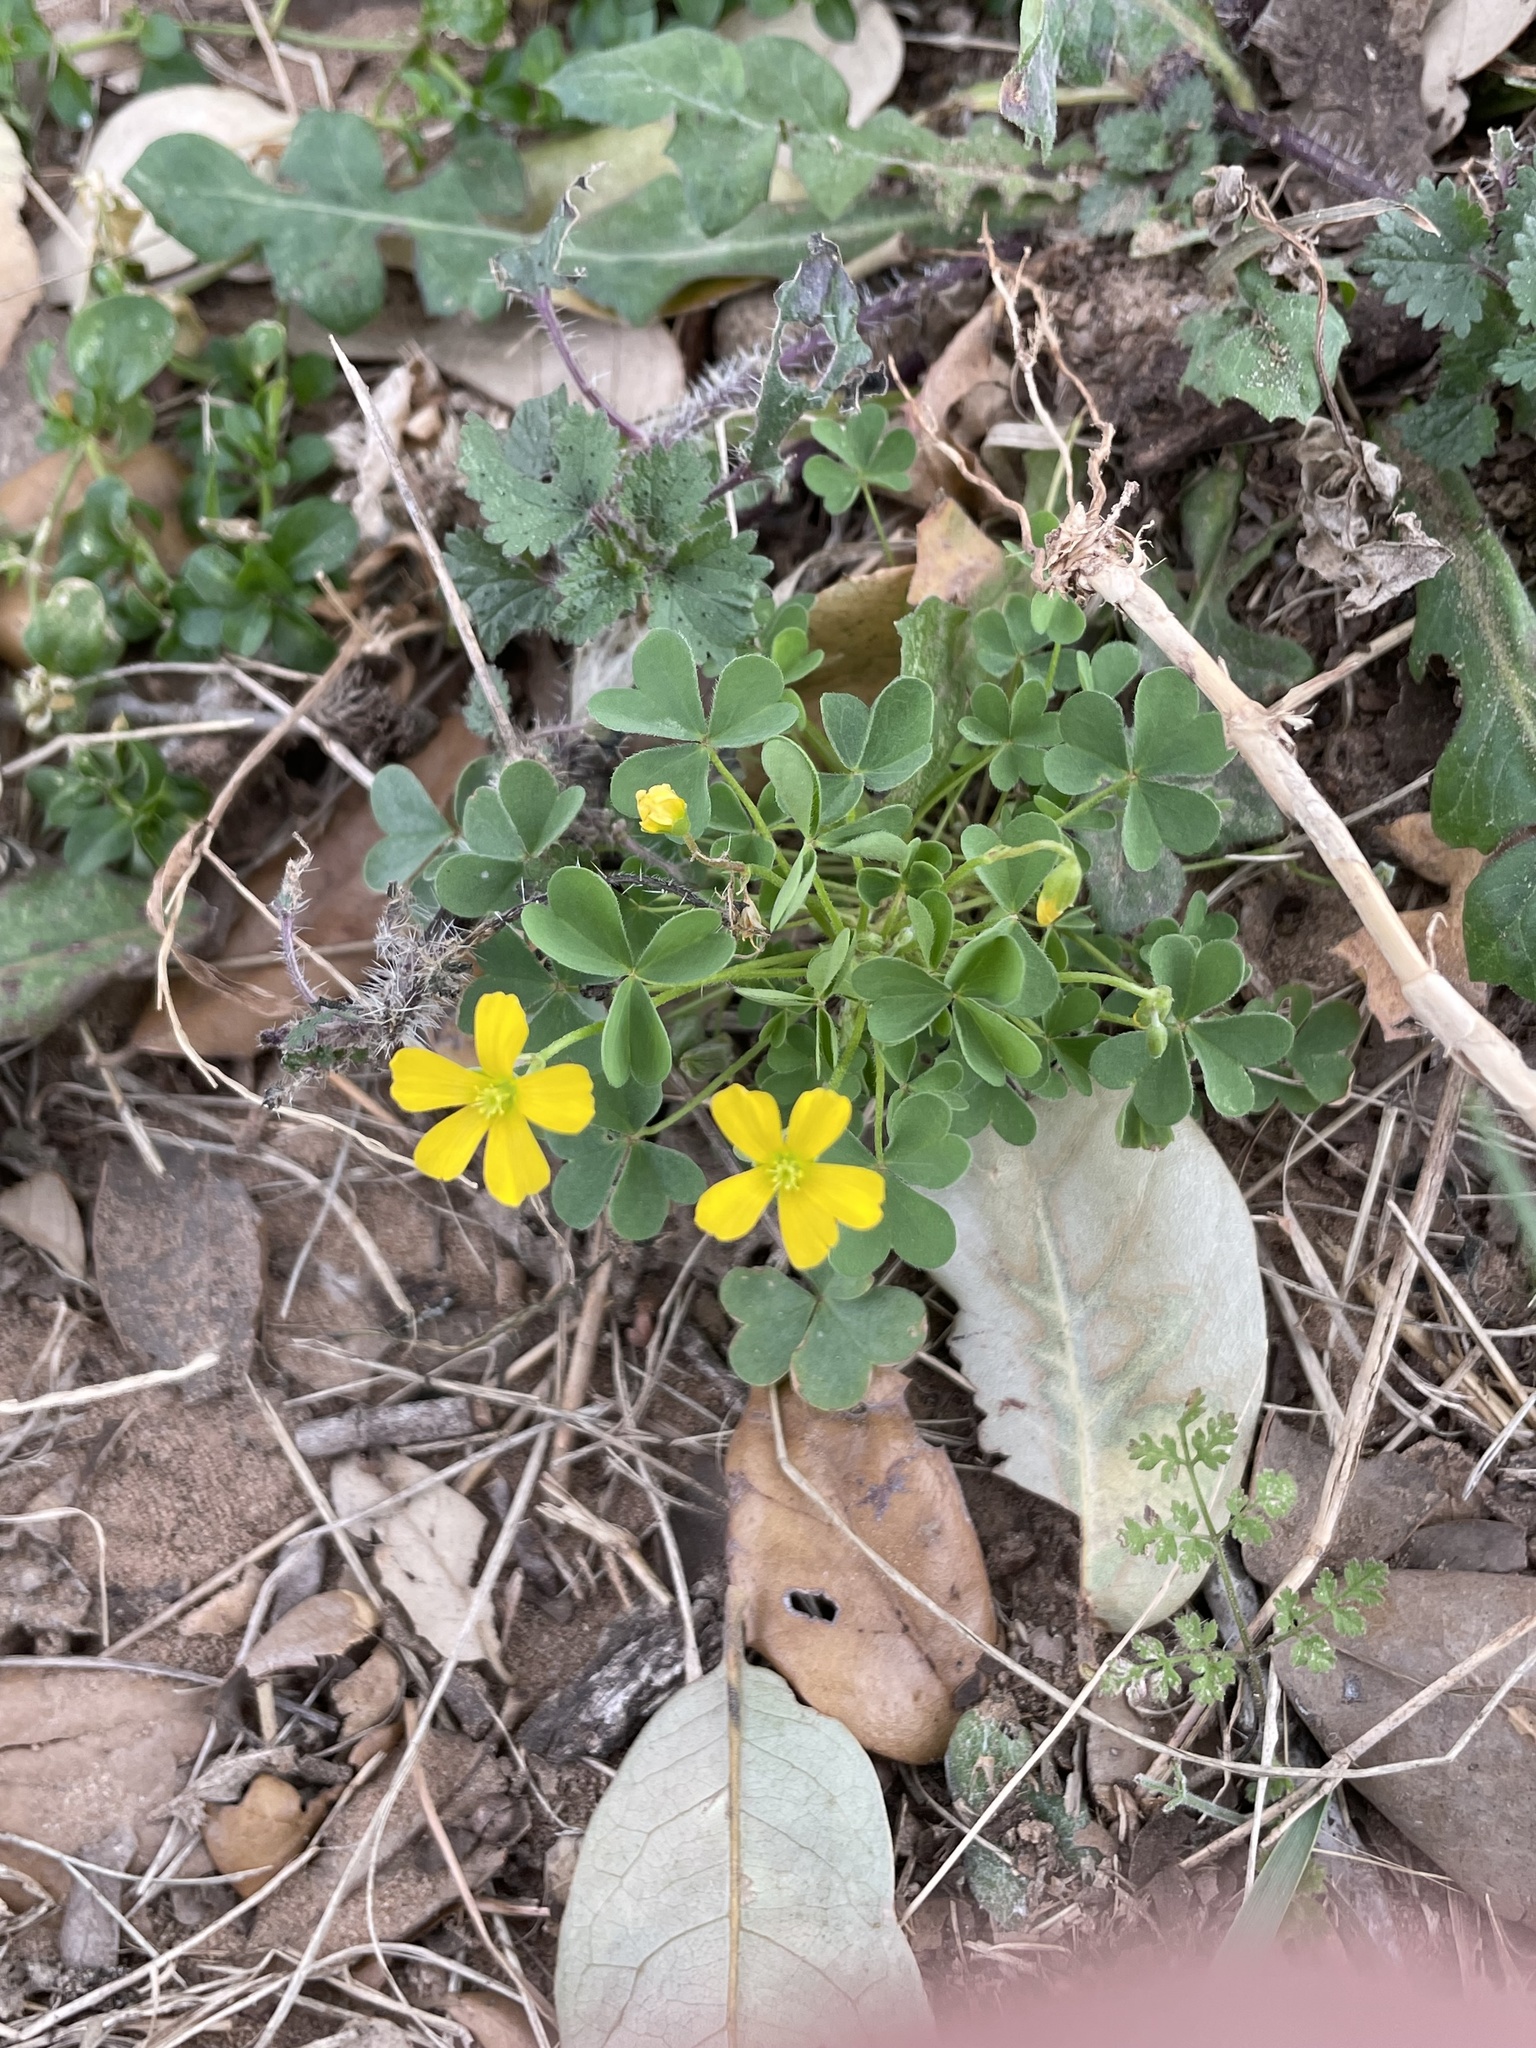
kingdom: Plantae
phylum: Tracheophyta
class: Magnoliopsida
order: Oxalidales
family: Oxalidaceae
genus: Oxalis
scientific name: Oxalis dillenii
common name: Sussex yellow-sorrel
